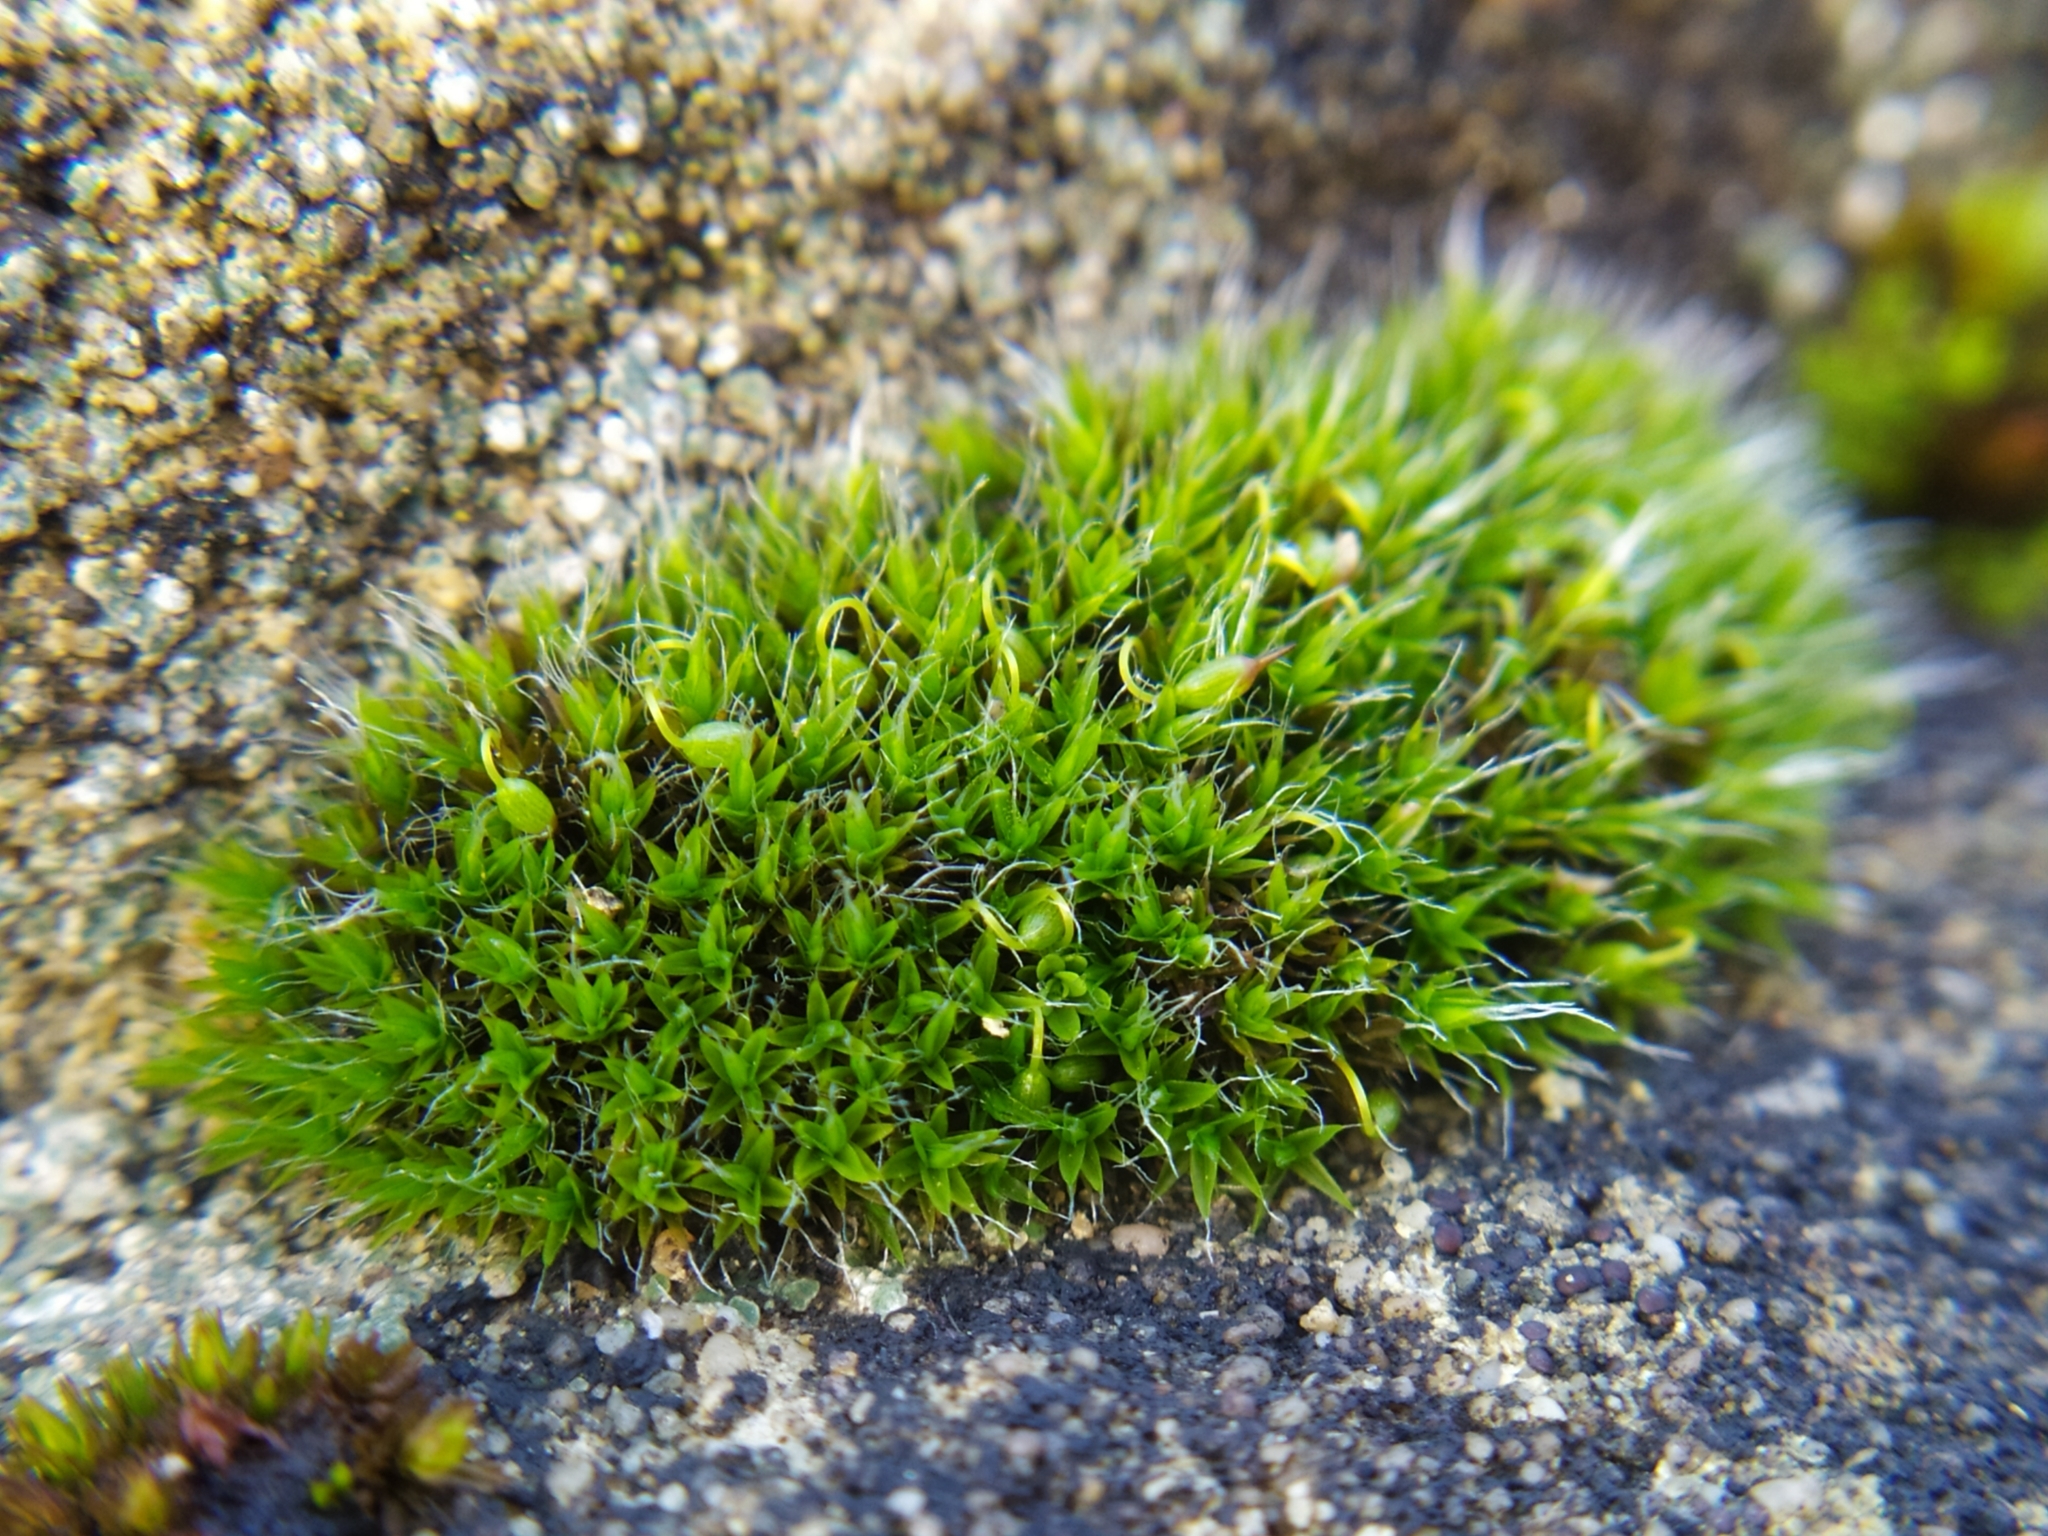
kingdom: Plantae
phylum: Bryophyta
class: Bryopsida
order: Grimmiales
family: Grimmiaceae
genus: Grimmia
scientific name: Grimmia pulvinata
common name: Grey-cushioned grimmia
